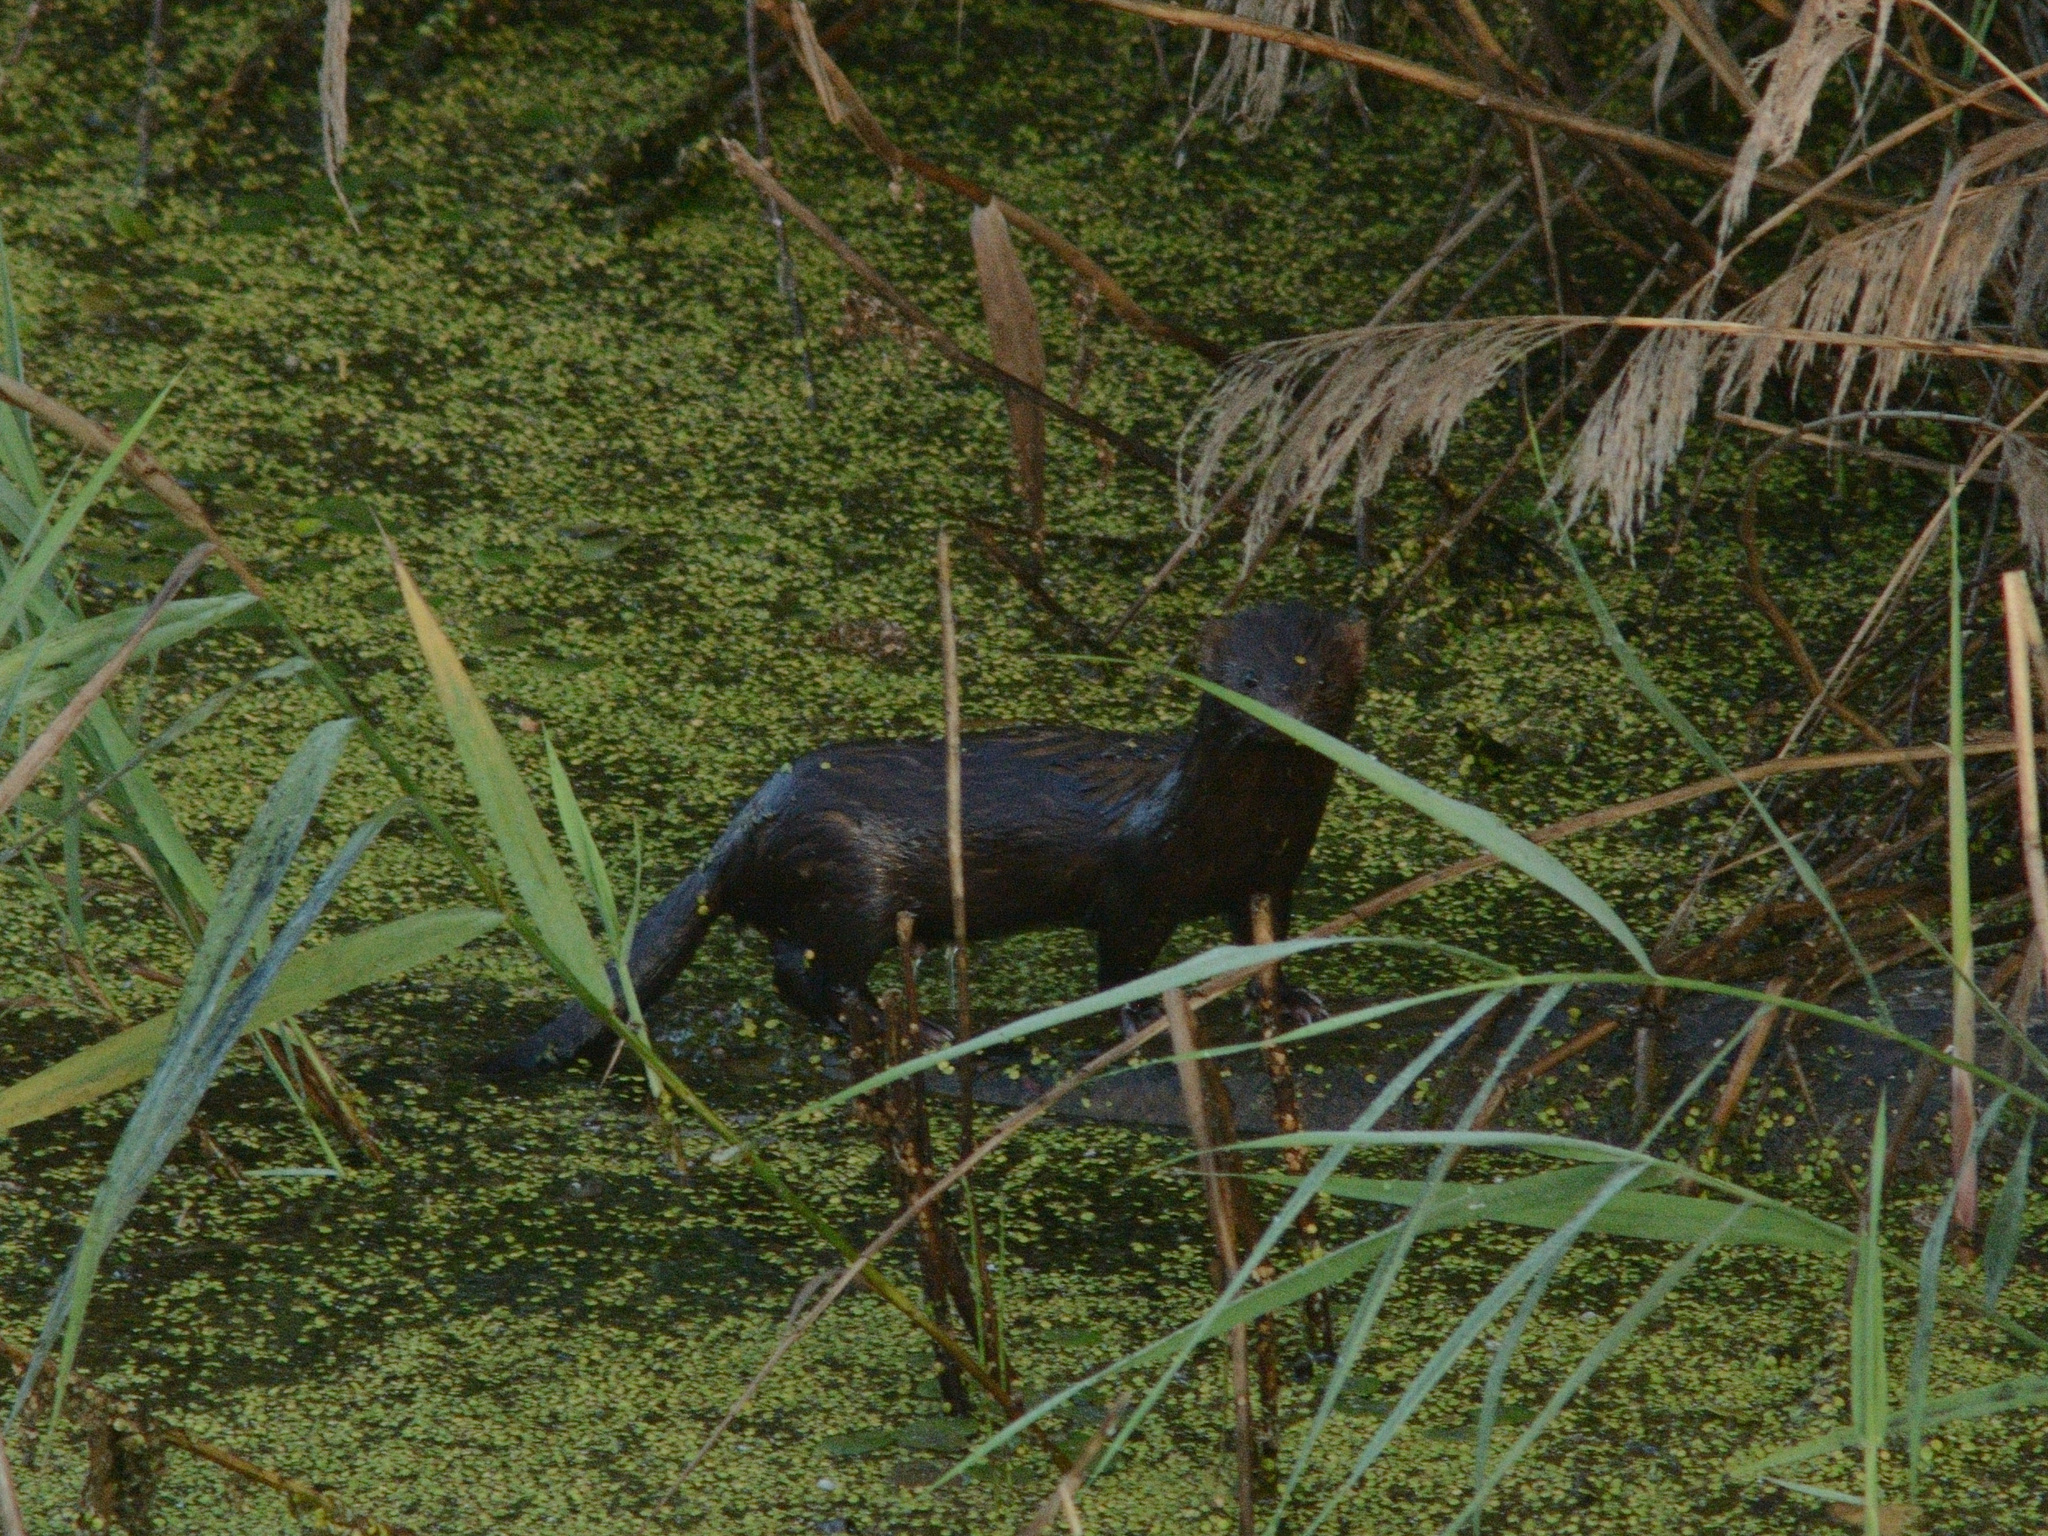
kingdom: Animalia
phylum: Chordata
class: Mammalia
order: Carnivora
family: Mustelidae
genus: Mustela
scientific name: Mustela
